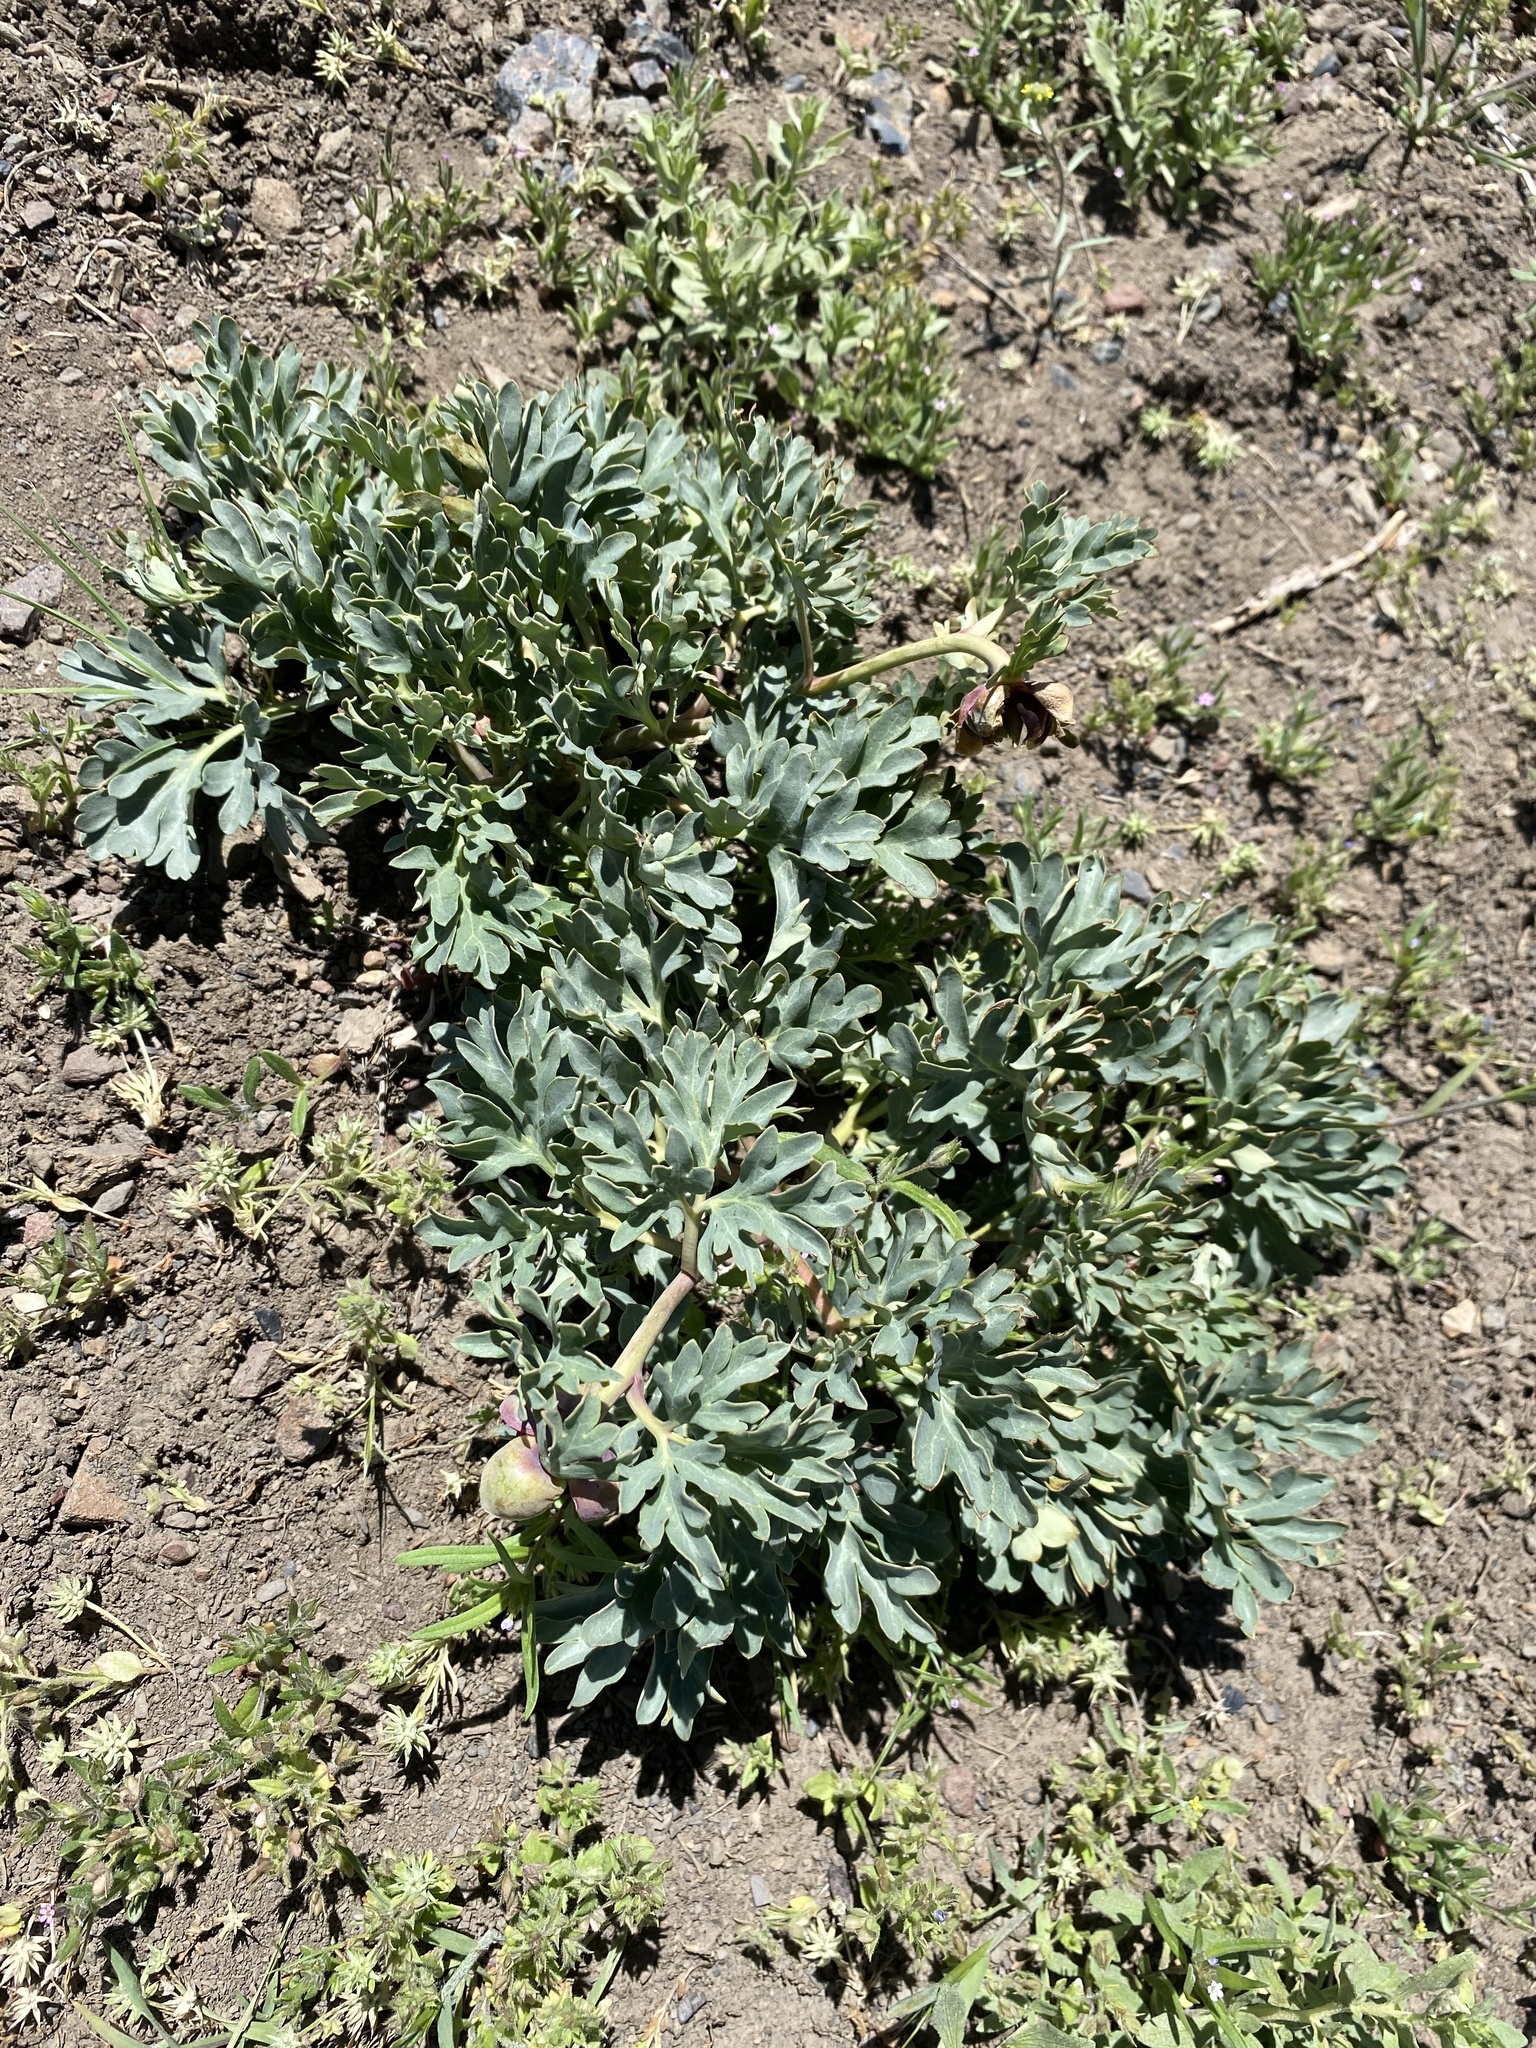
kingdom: Plantae
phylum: Tracheophyta
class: Magnoliopsida
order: Saxifragales
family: Paeoniaceae
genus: Paeonia
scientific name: Paeonia brownii
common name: Brown's peony
